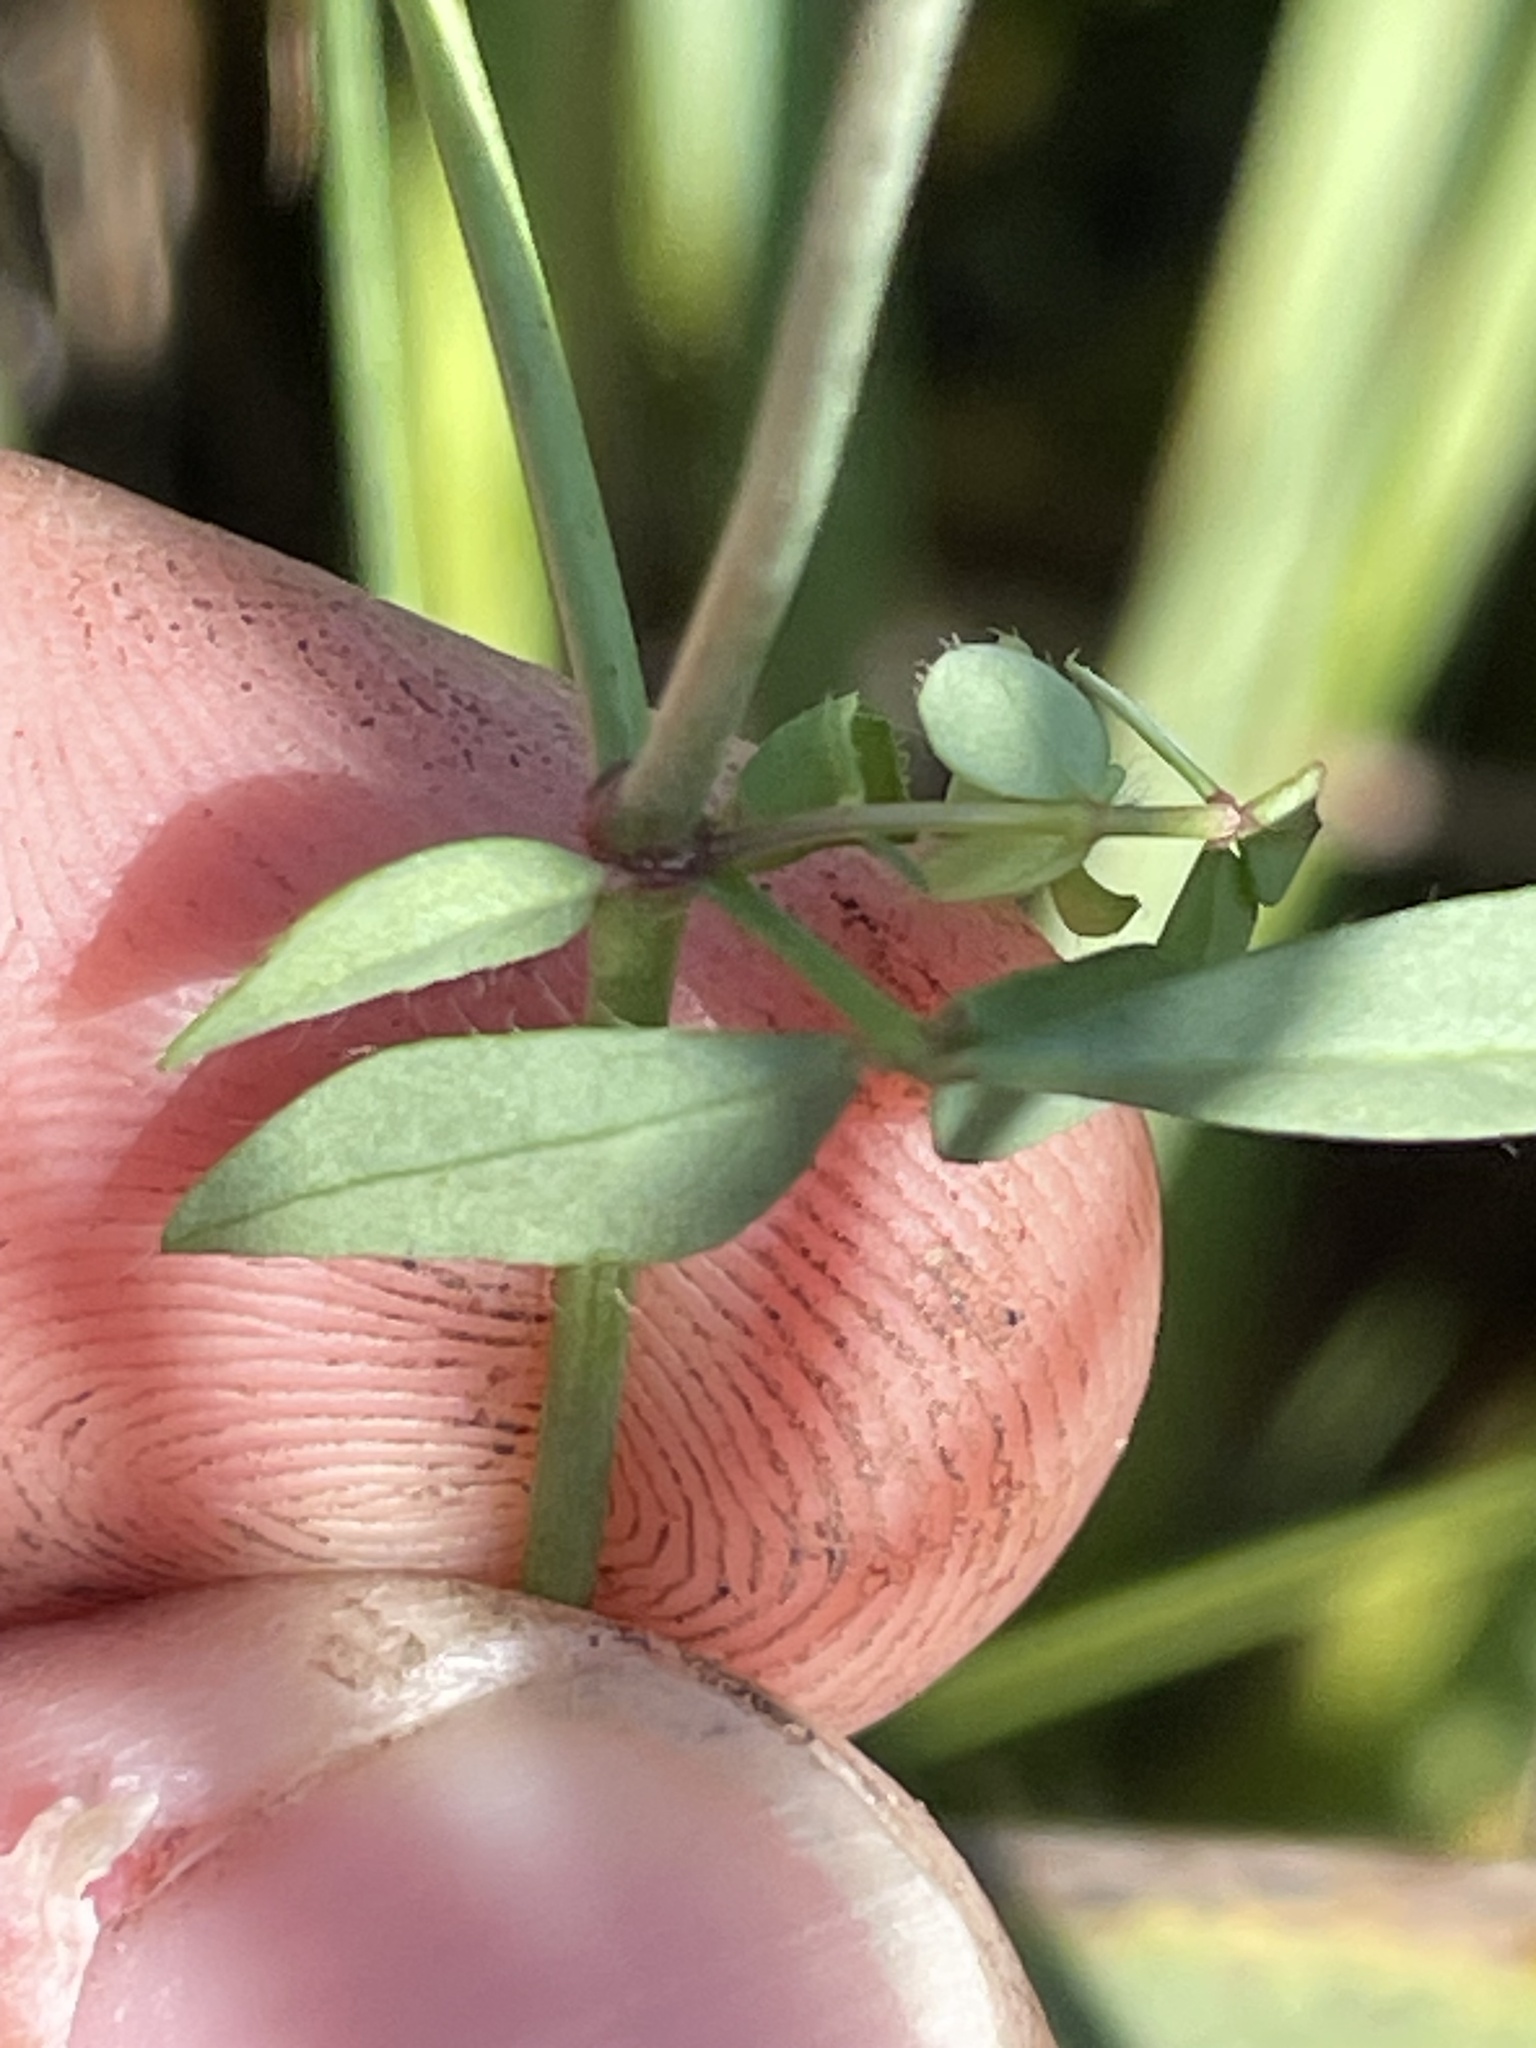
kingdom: Plantae
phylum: Tracheophyta
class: Magnoliopsida
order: Fabales
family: Fabaceae
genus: Lotus
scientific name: Lotus pedunculatus
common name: Greater birdsfoot-trefoil
